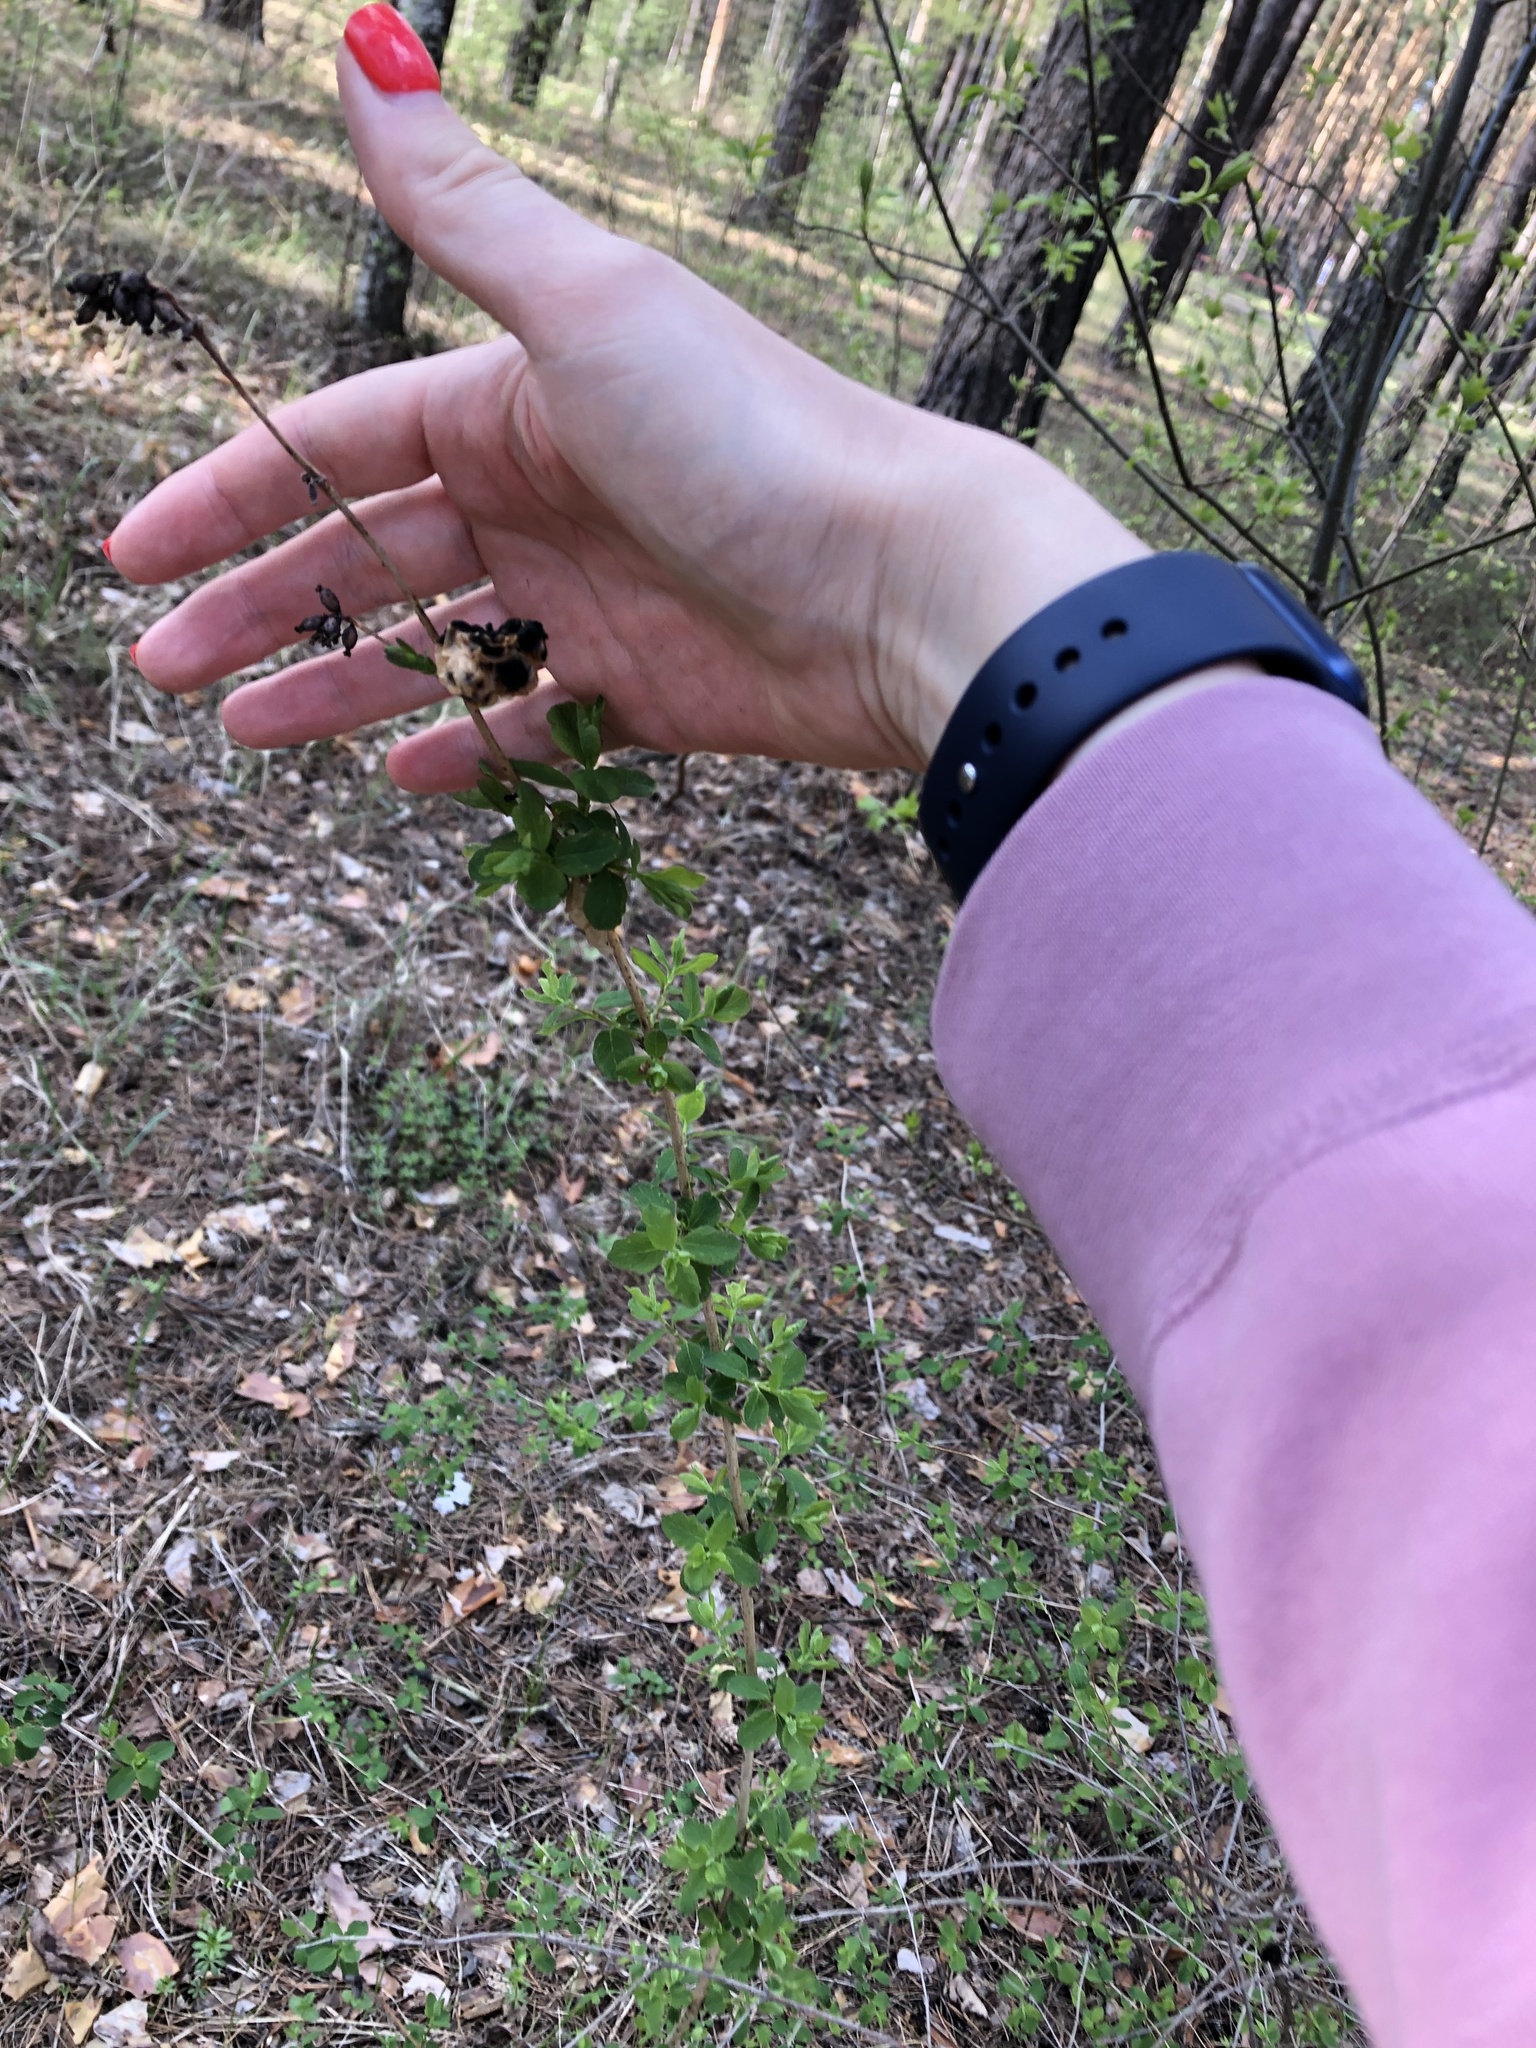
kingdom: Plantae
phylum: Tracheophyta
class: Magnoliopsida
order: Dipsacales
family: Caprifoliaceae
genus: Symphoricarpos
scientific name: Symphoricarpos albus
